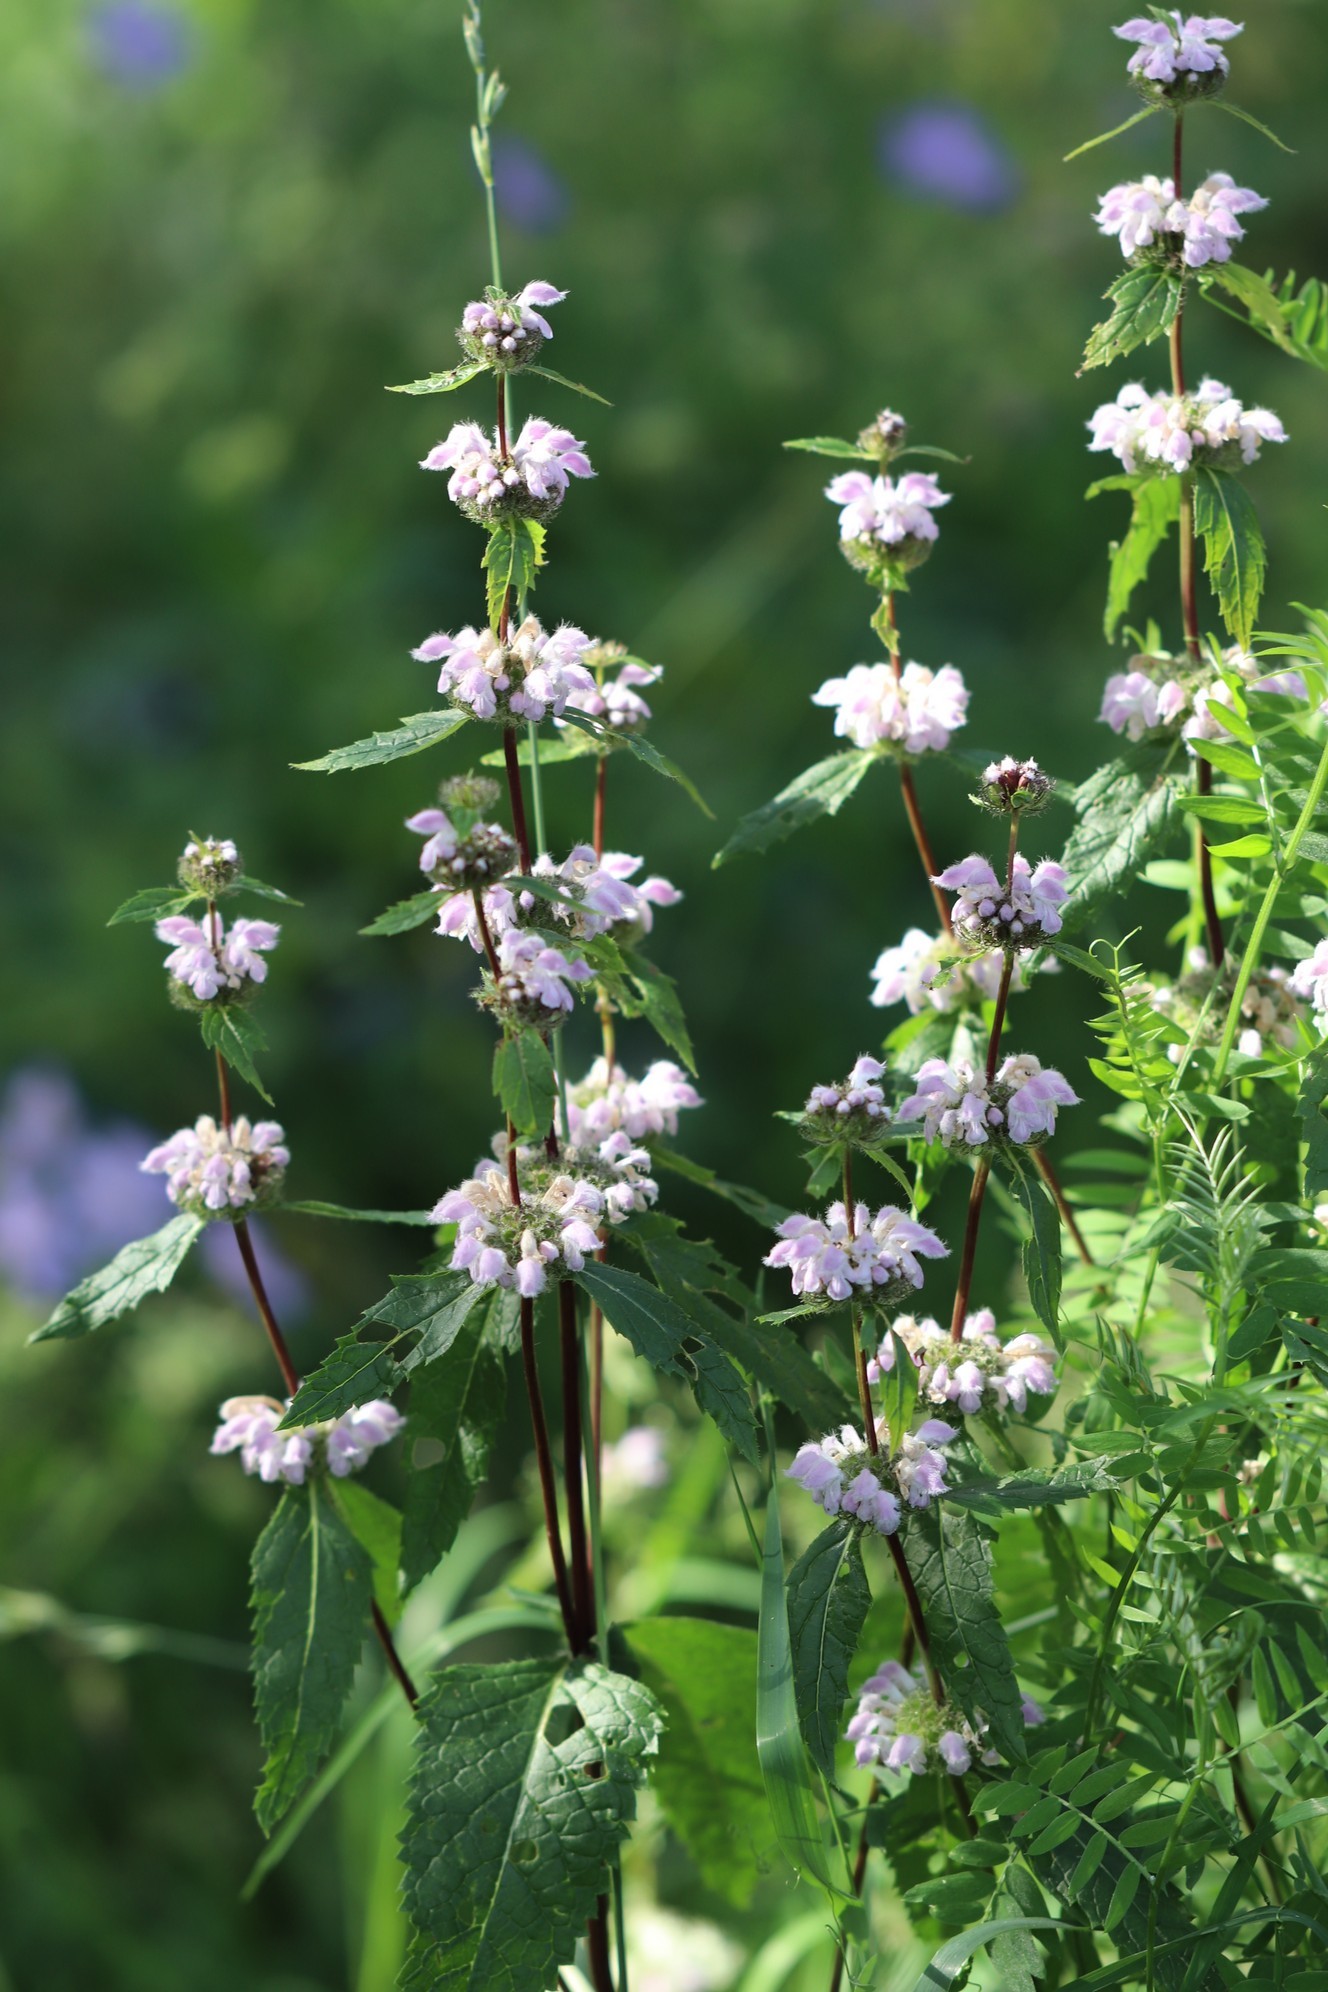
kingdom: Plantae
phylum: Tracheophyta
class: Magnoliopsida
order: Lamiales
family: Lamiaceae
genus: Phlomoides
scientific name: Phlomoides tuberosa
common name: Tuberous jerusalem sage
